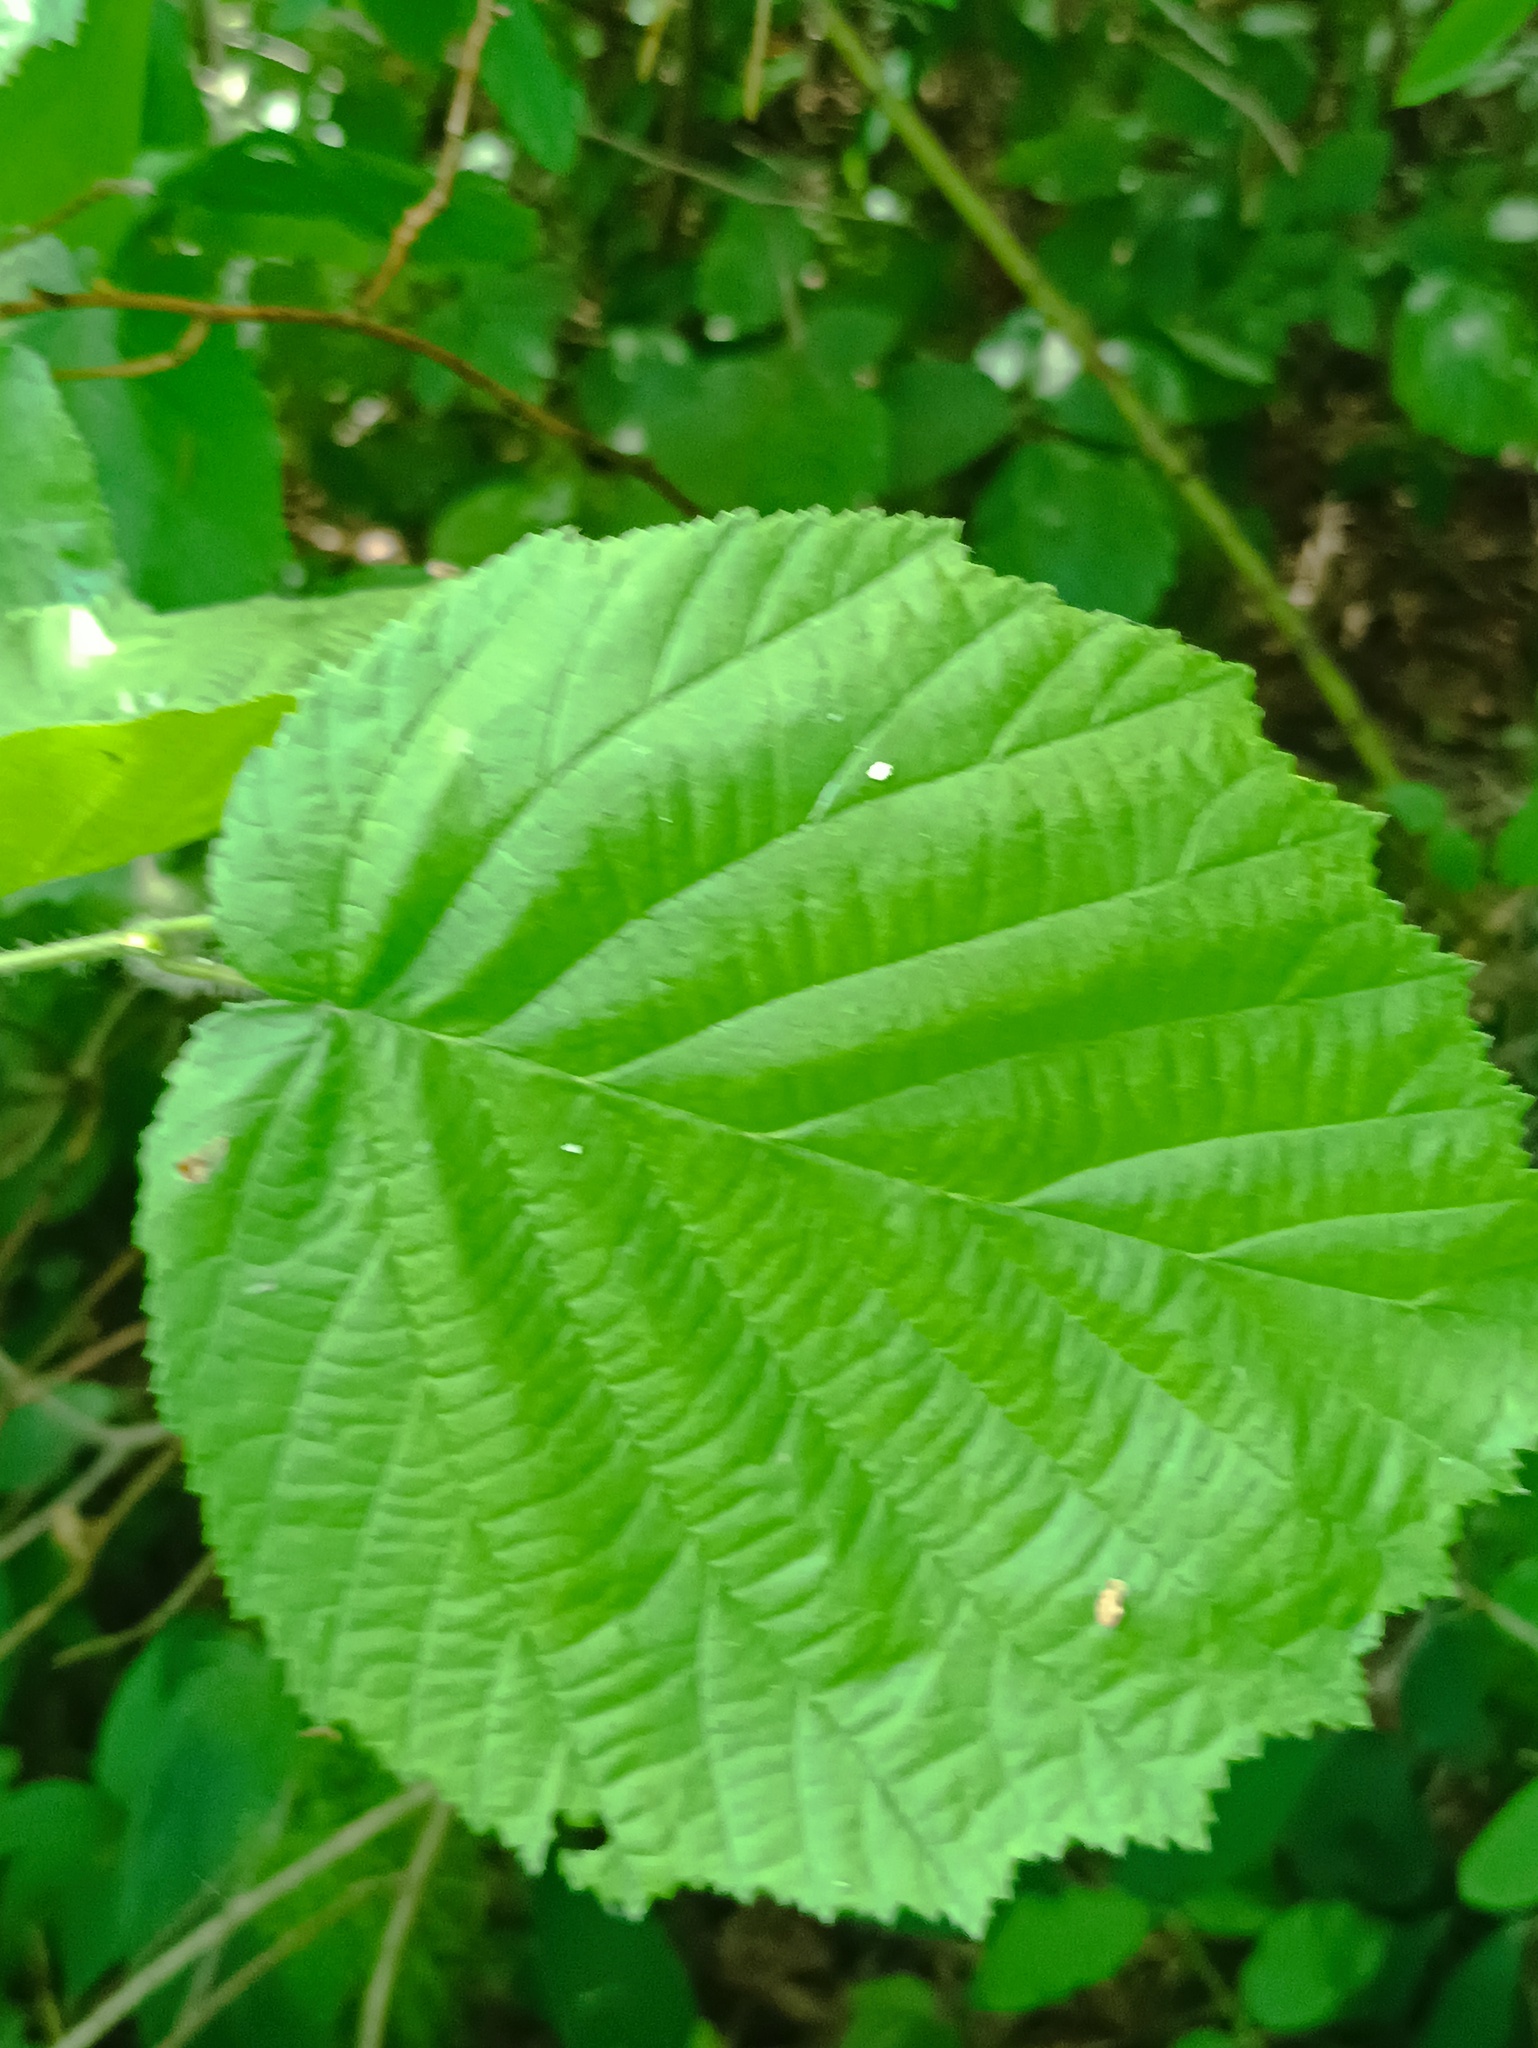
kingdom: Plantae
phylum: Tracheophyta
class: Magnoliopsida
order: Fagales
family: Betulaceae
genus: Corylus
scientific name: Corylus avellana
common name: European hazel
